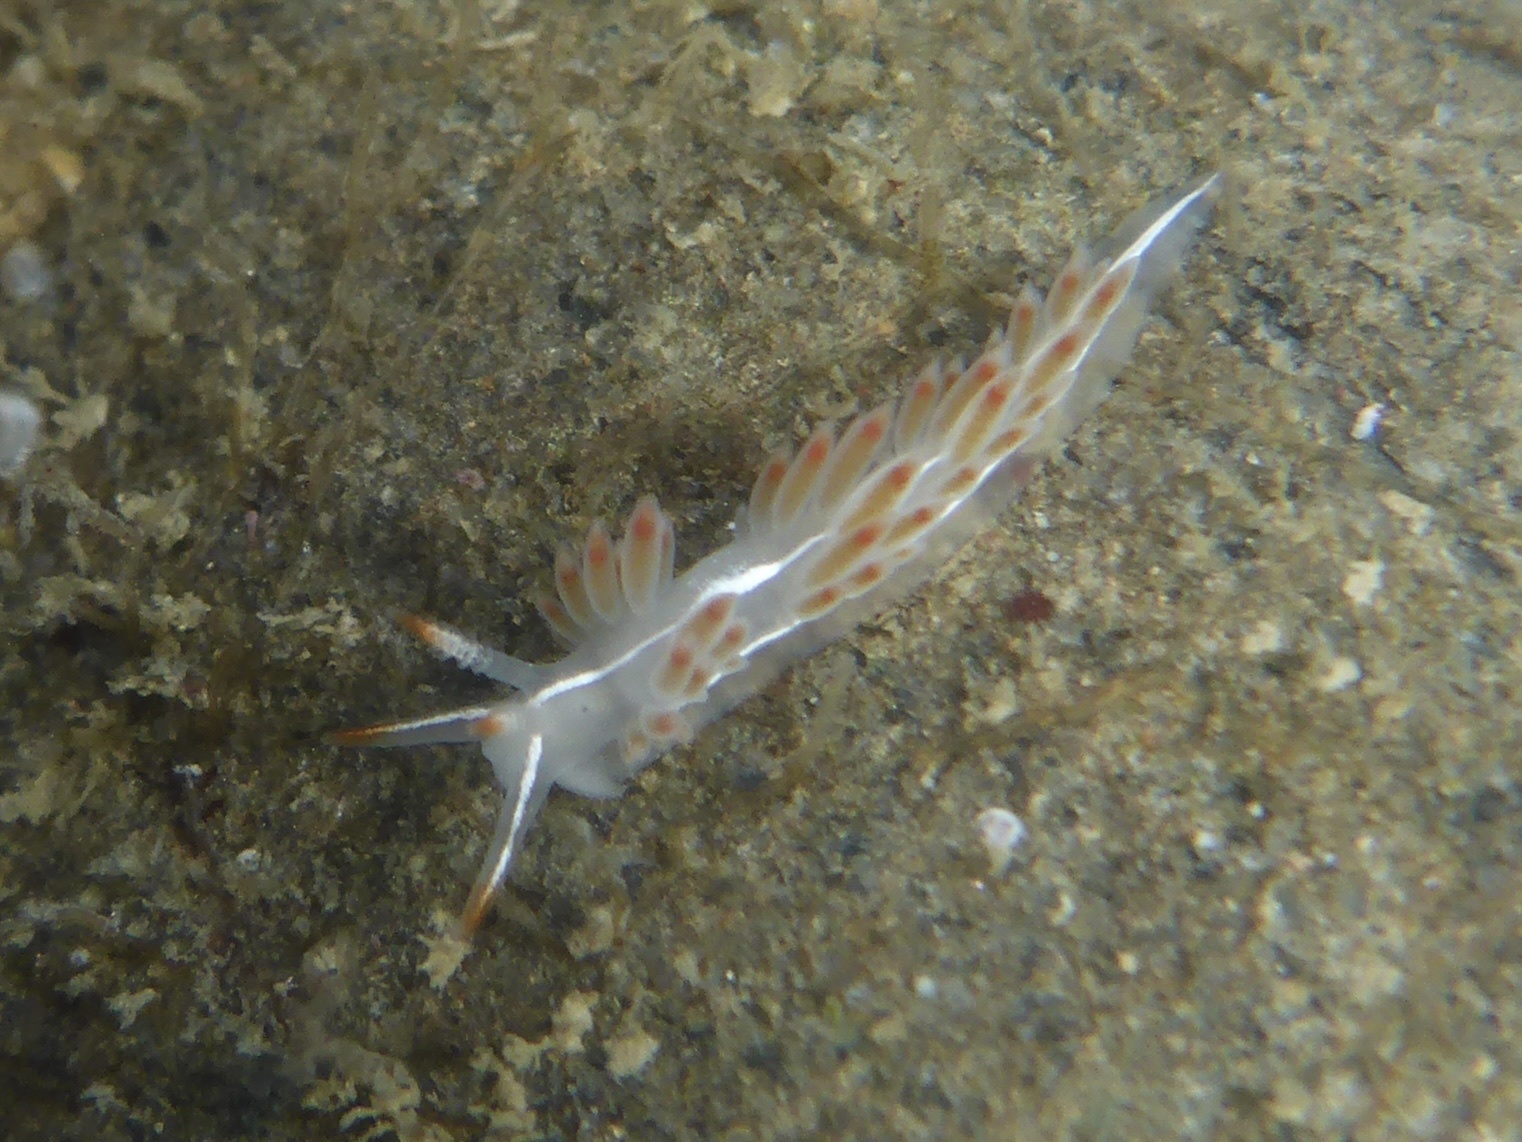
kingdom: Animalia
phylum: Mollusca
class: Gastropoda
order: Nudibranchia
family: Coryphellidae
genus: Coryphella
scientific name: Coryphella trilineata
